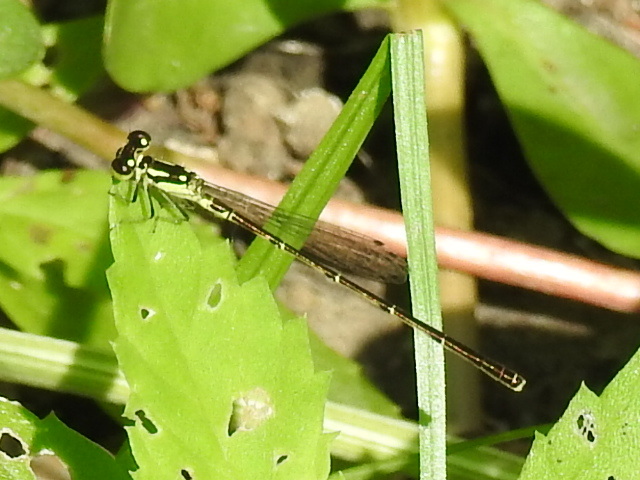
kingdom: Animalia
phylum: Arthropoda
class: Insecta
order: Odonata
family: Coenagrionidae
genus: Ischnura
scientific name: Ischnura posita
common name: Fragile forktail
